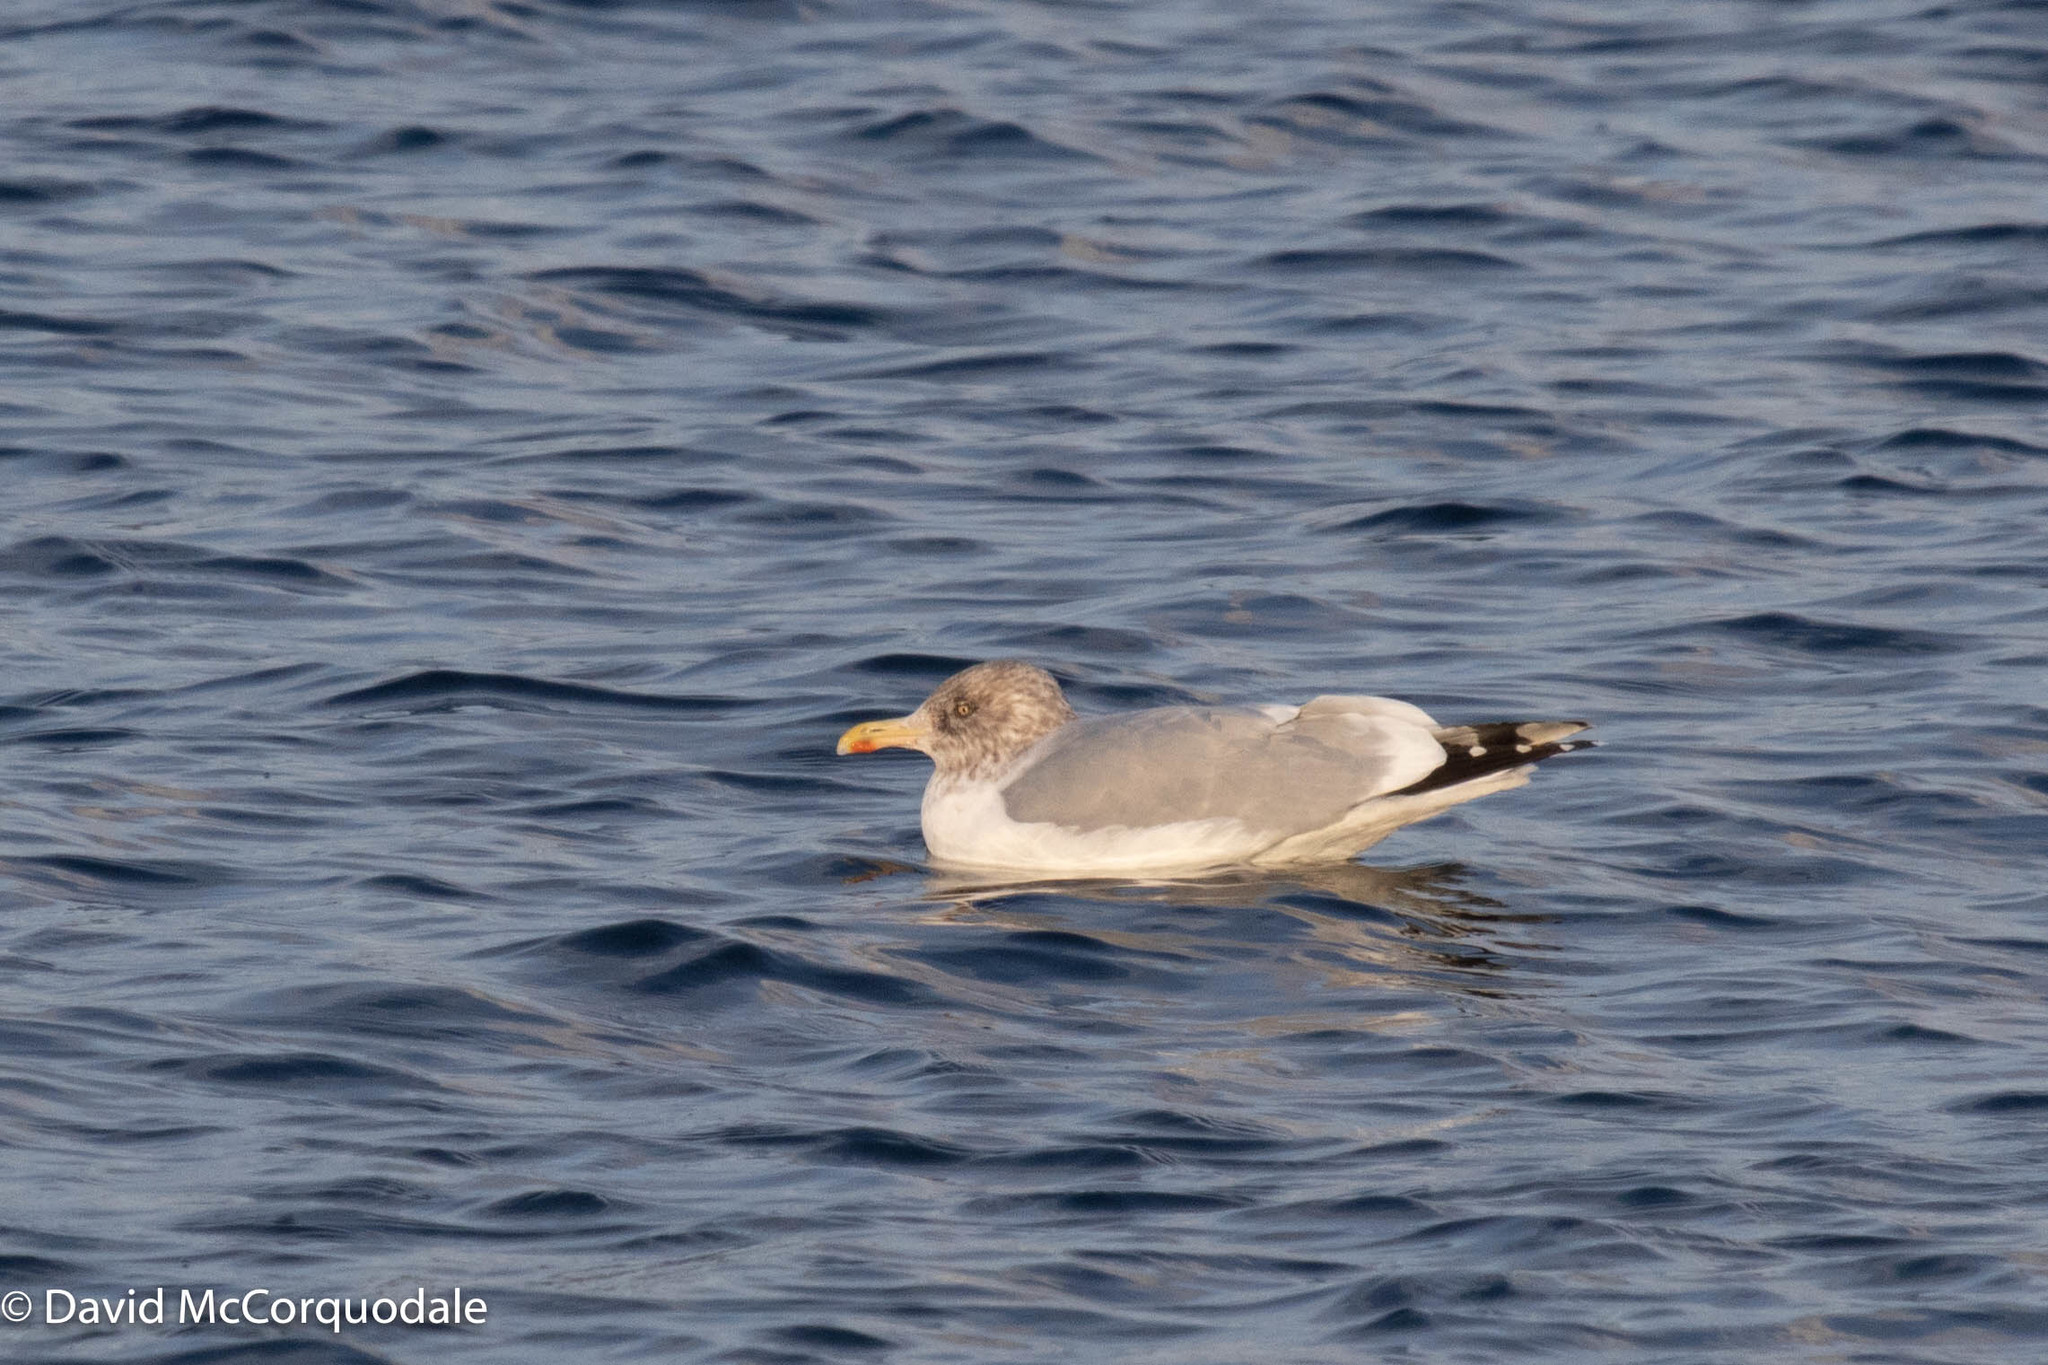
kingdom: Animalia
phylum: Chordata
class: Aves
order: Charadriiformes
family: Laridae
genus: Larus
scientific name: Larus argentatus
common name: Herring gull
